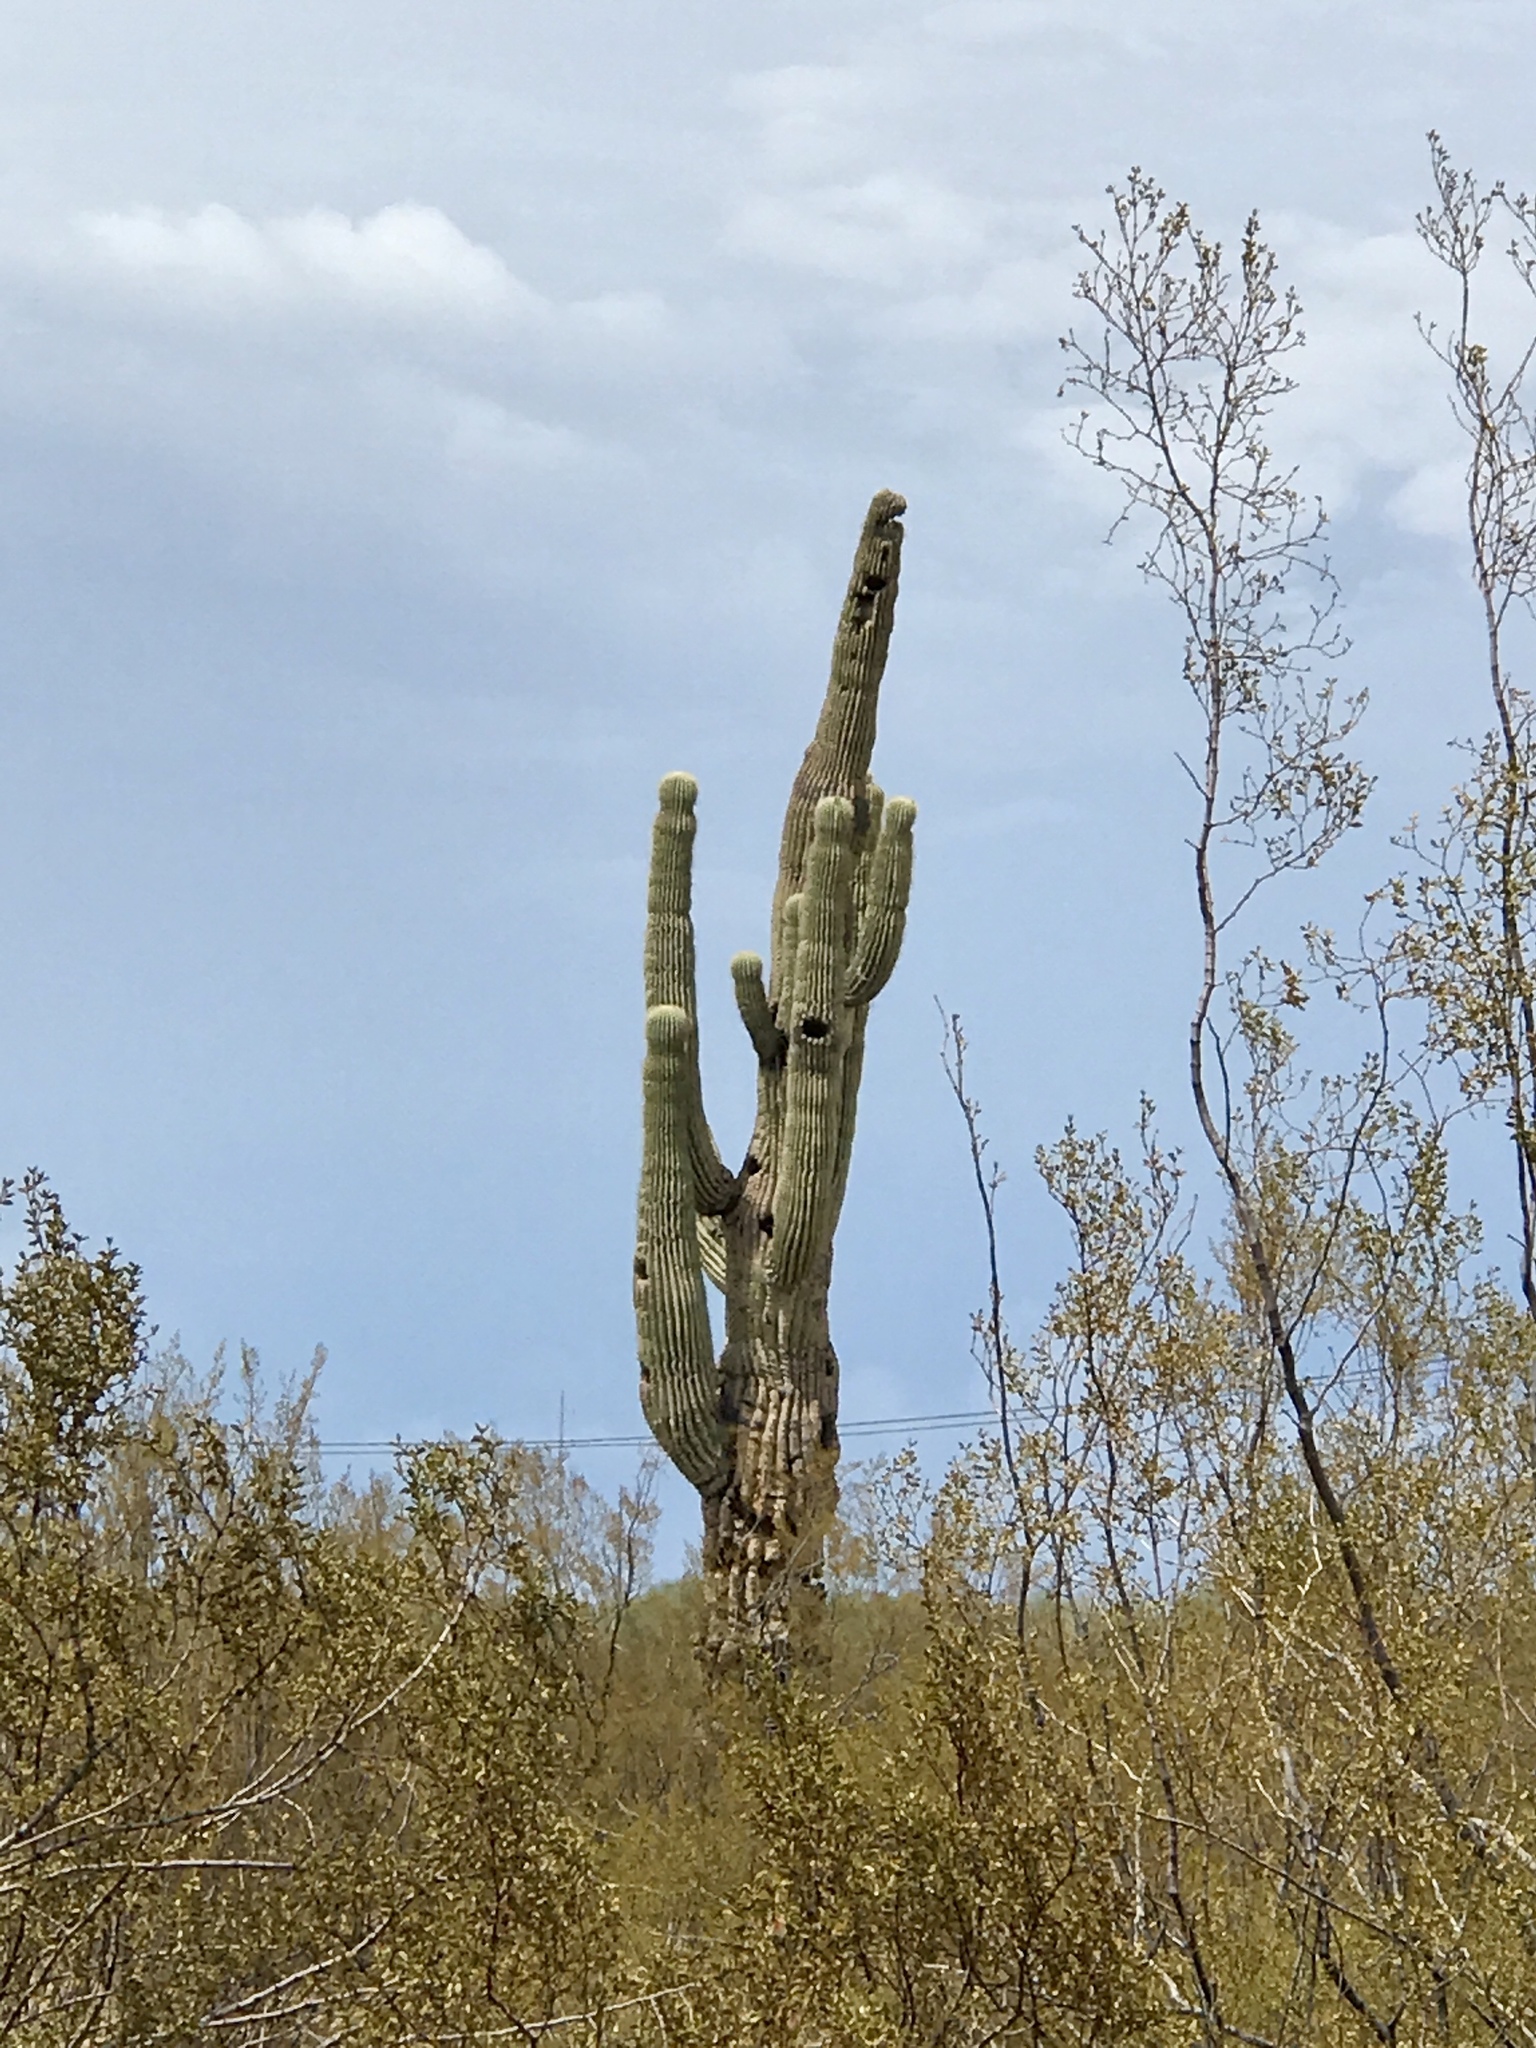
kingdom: Plantae
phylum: Tracheophyta
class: Magnoliopsida
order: Caryophyllales
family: Cactaceae
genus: Carnegiea
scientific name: Carnegiea gigantea
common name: Saguaro
